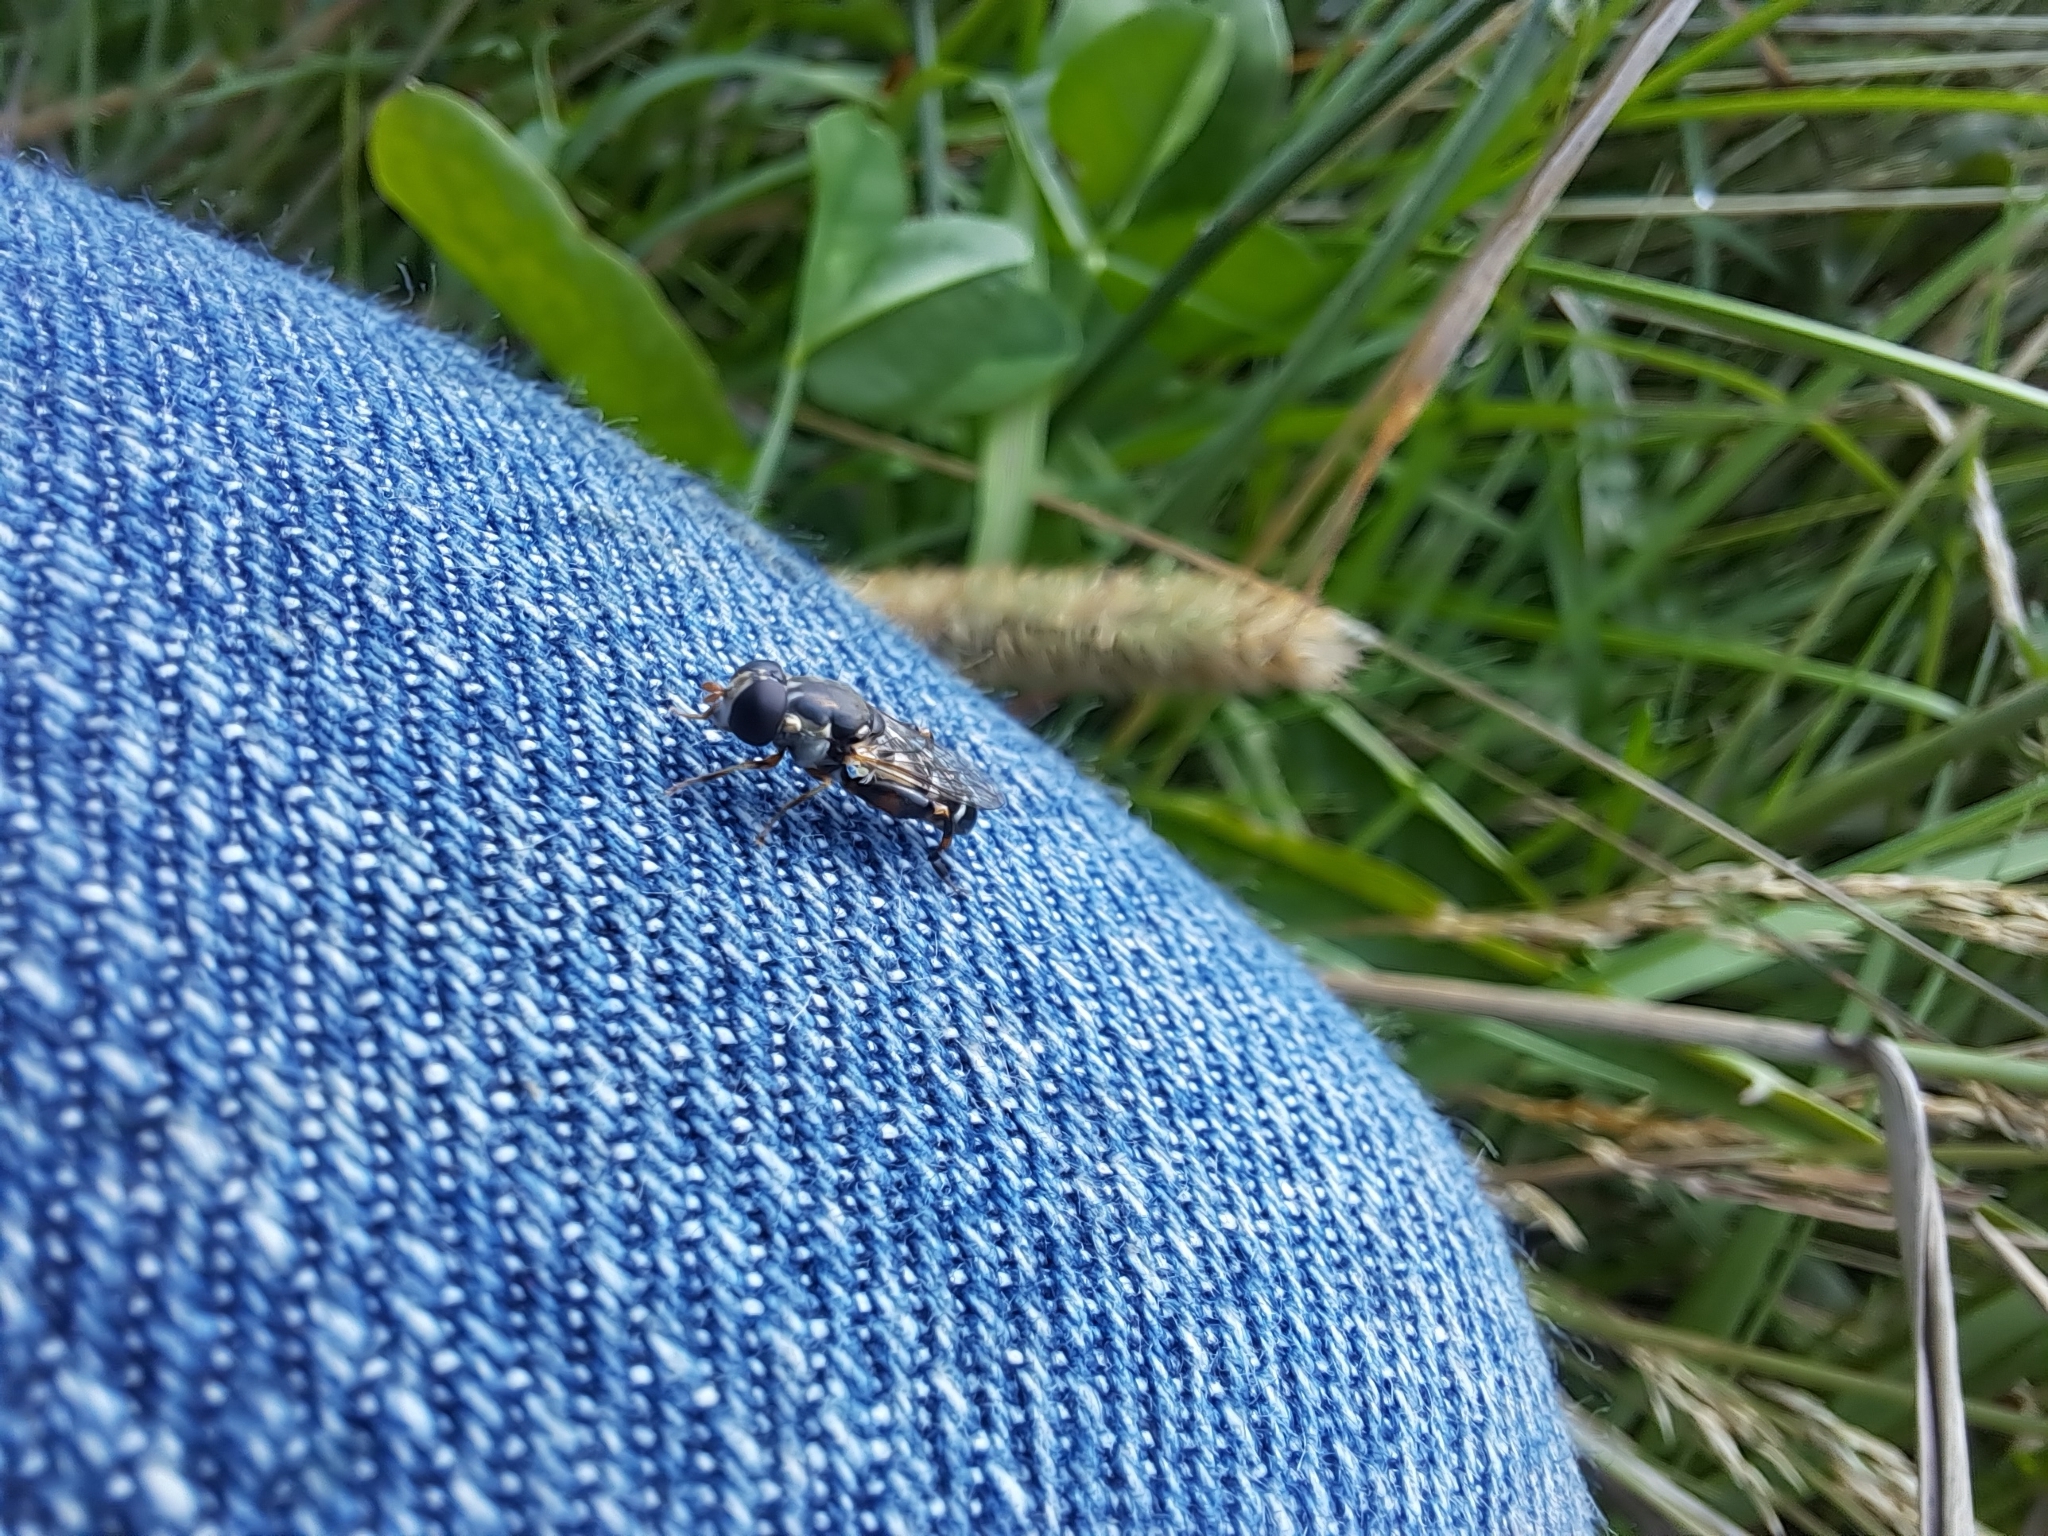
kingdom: Animalia
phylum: Arthropoda
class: Insecta
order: Diptera
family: Syrphidae
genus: Syritta
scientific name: Syritta pipiens
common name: Hover fly
